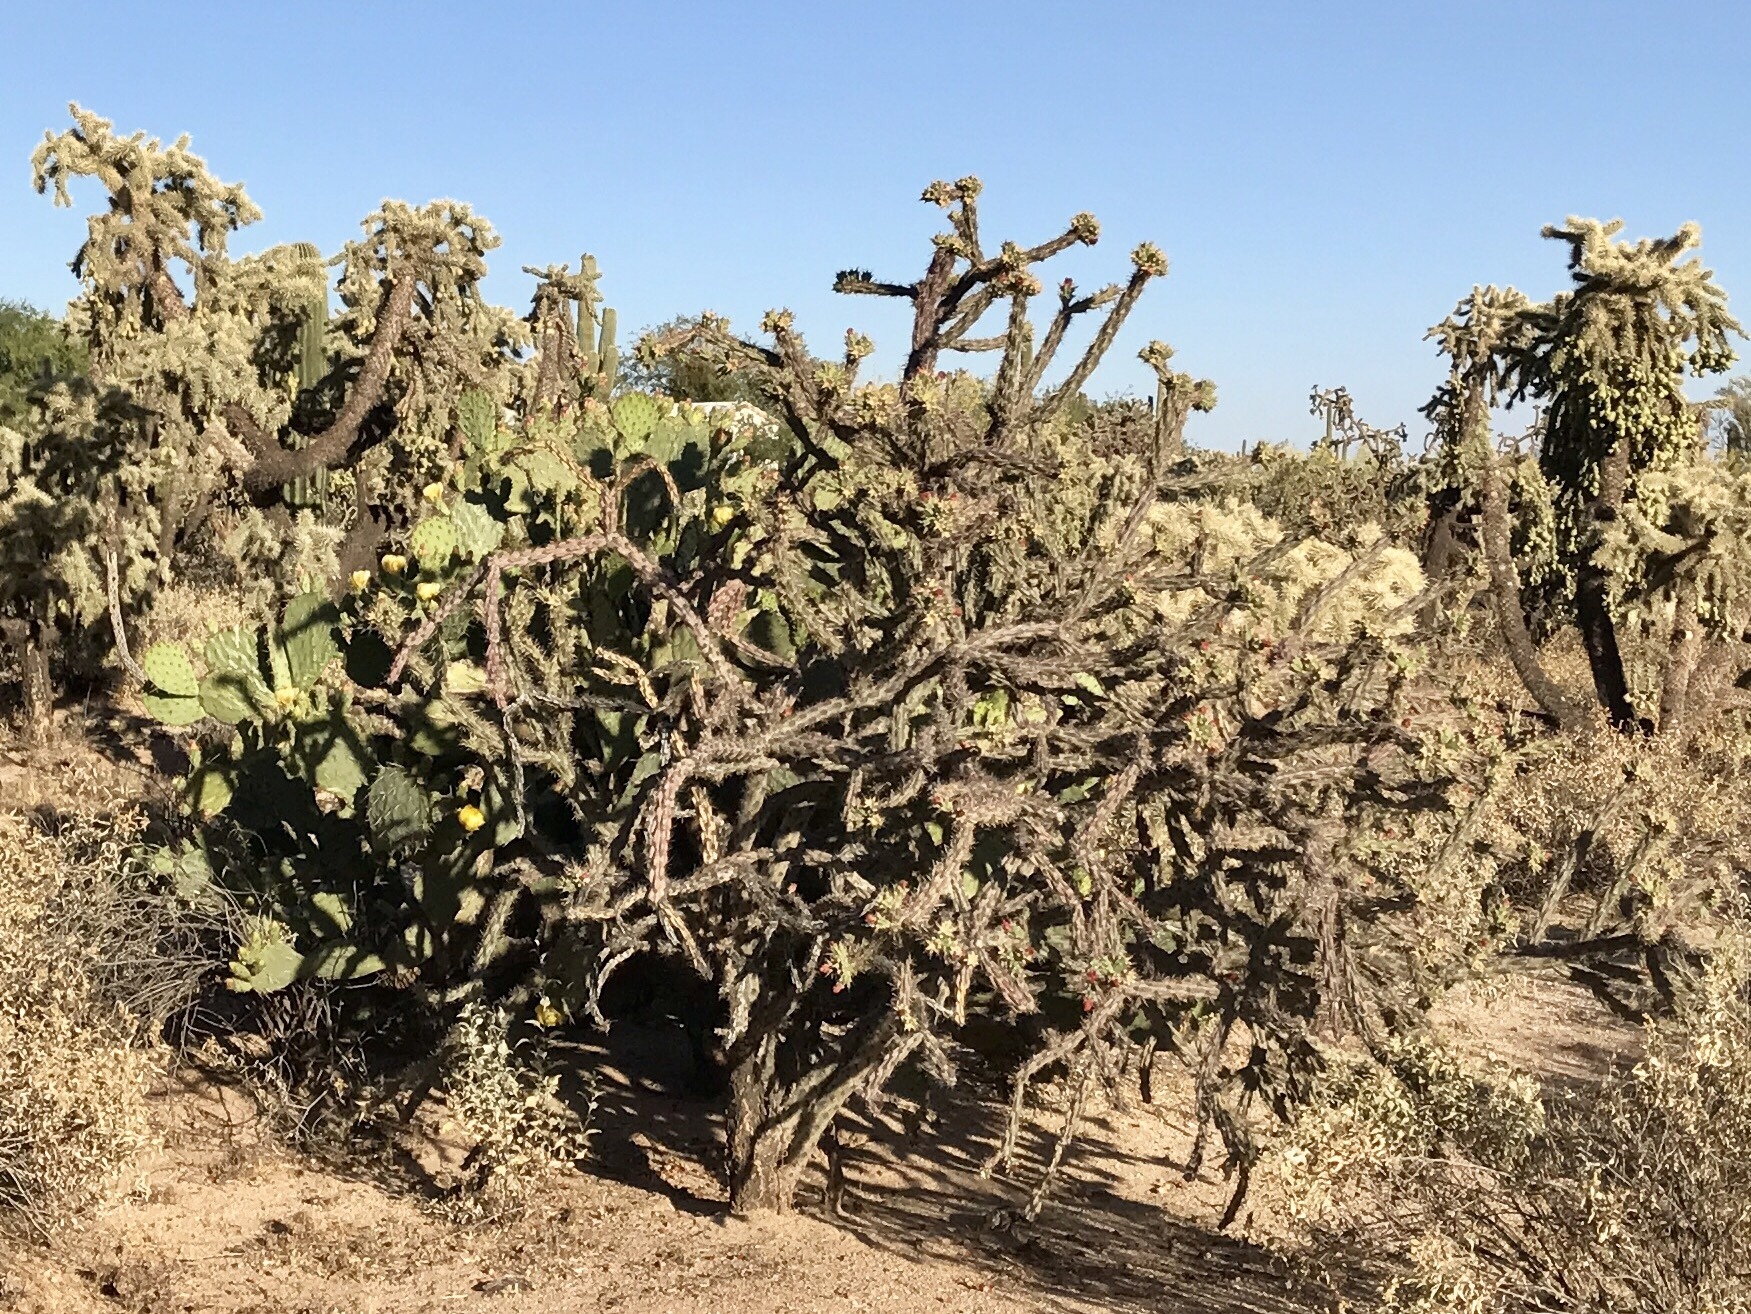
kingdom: Plantae
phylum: Tracheophyta
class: Magnoliopsida
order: Caryophyllales
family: Cactaceae
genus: Cylindropuntia
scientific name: Cylindropuntia thurberi
